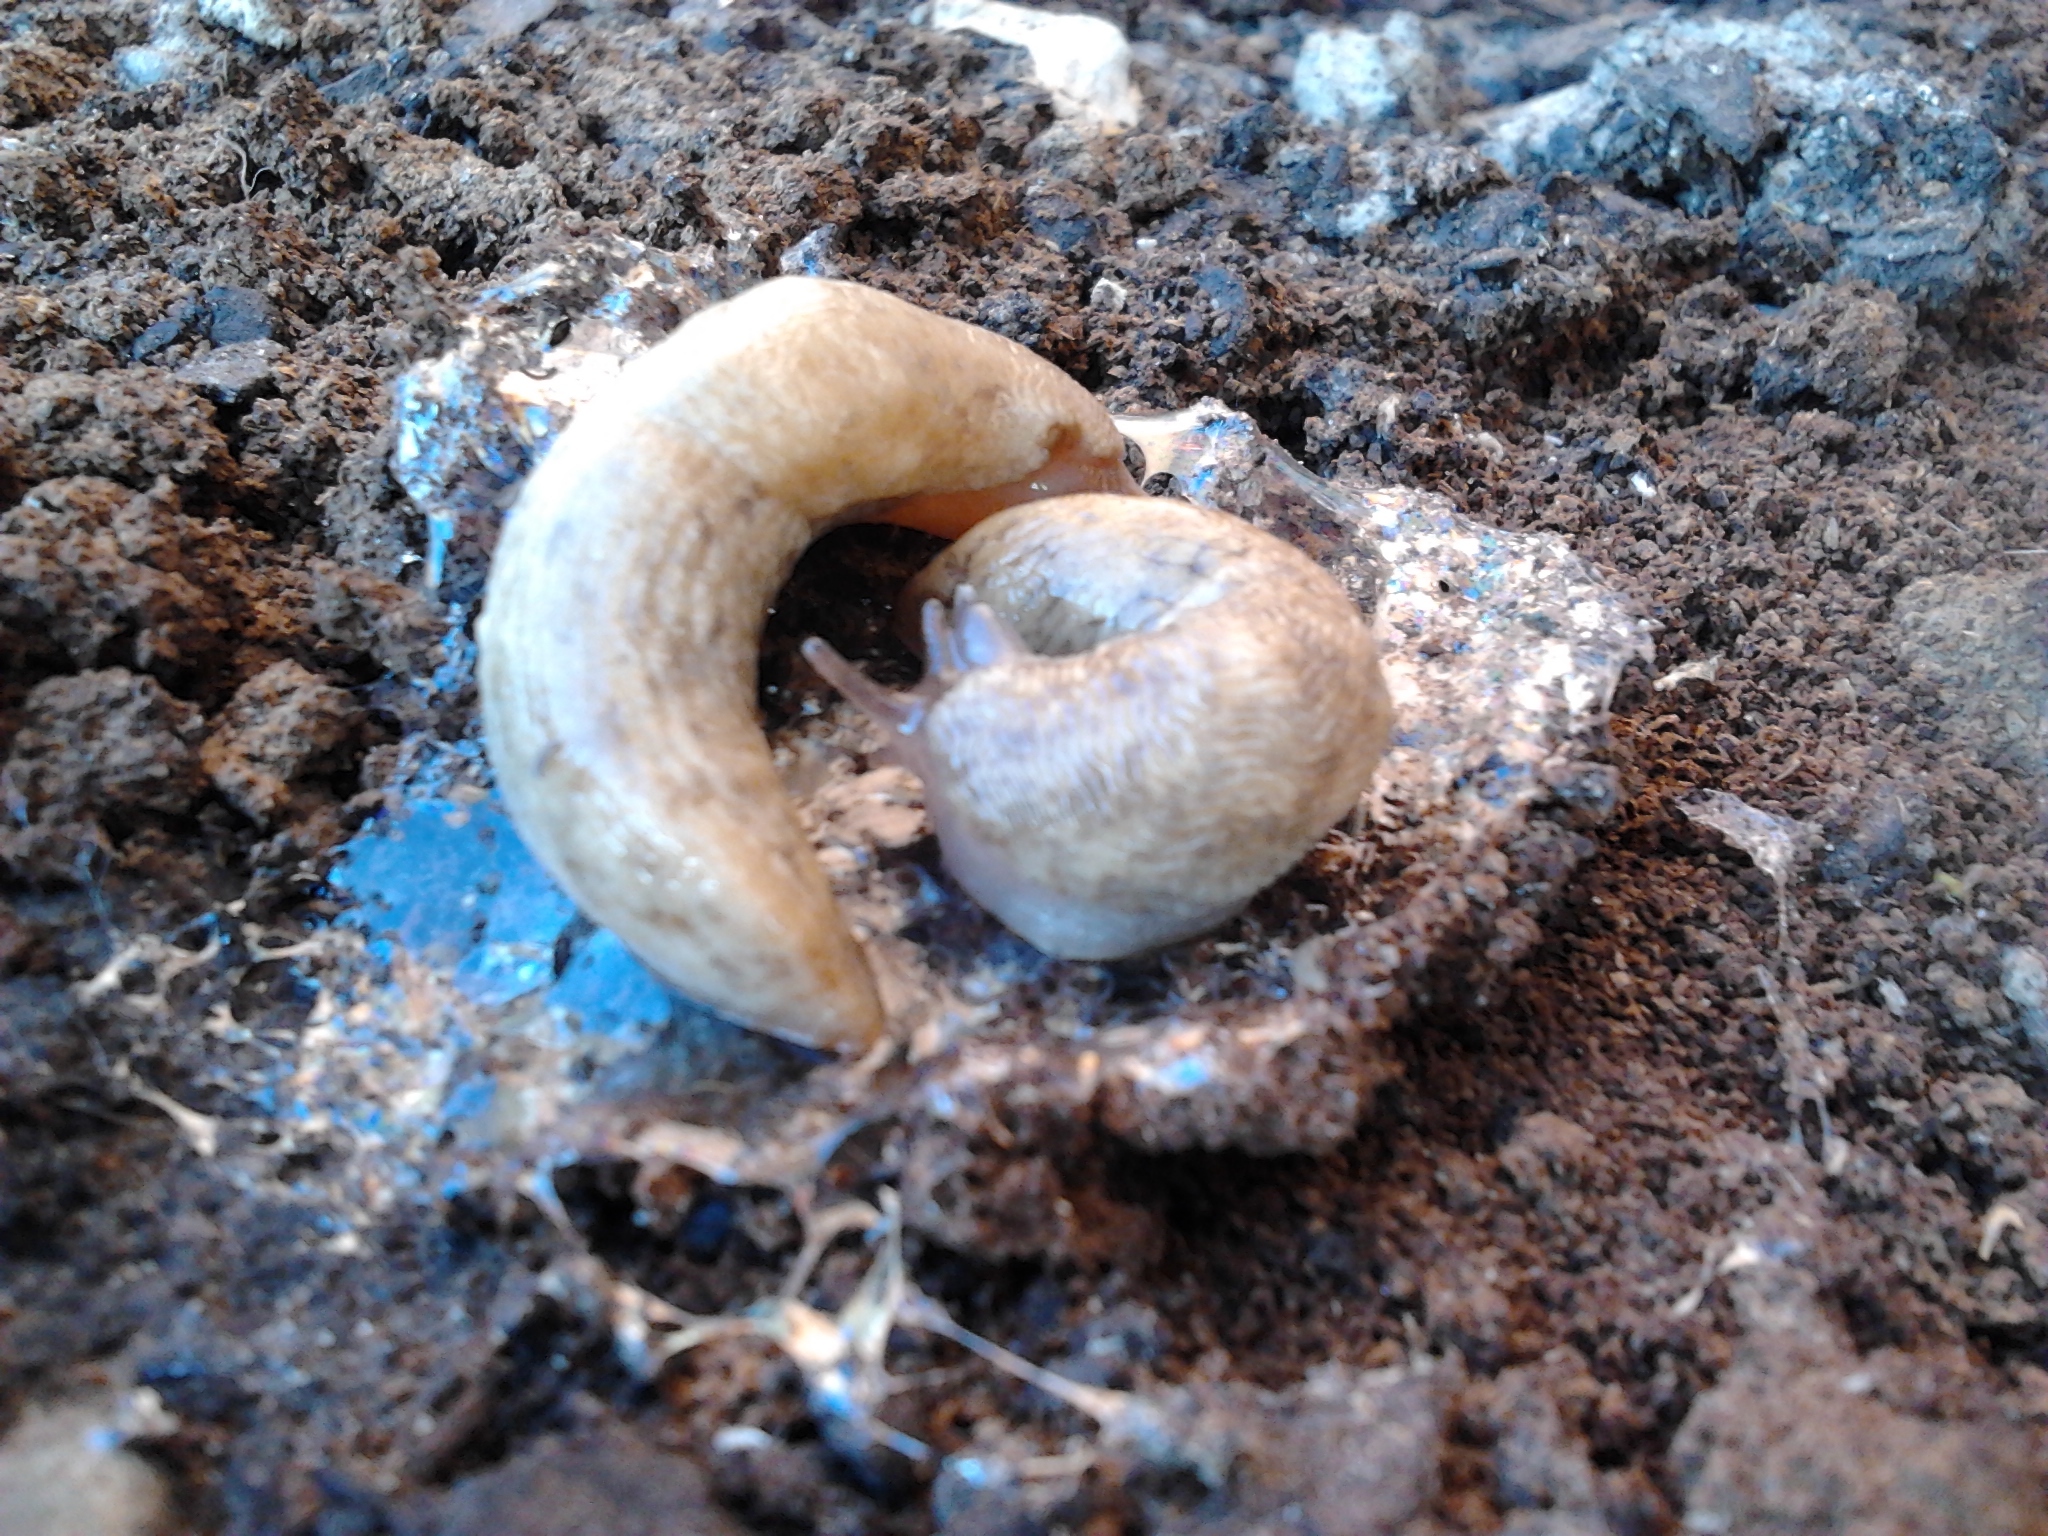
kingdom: Animalia
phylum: Mollusca
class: Gastropoda
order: Stylommatophora
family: Agriolimacidae
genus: Deroceras
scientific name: Deroceras reticulatum
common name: Gray field slug
